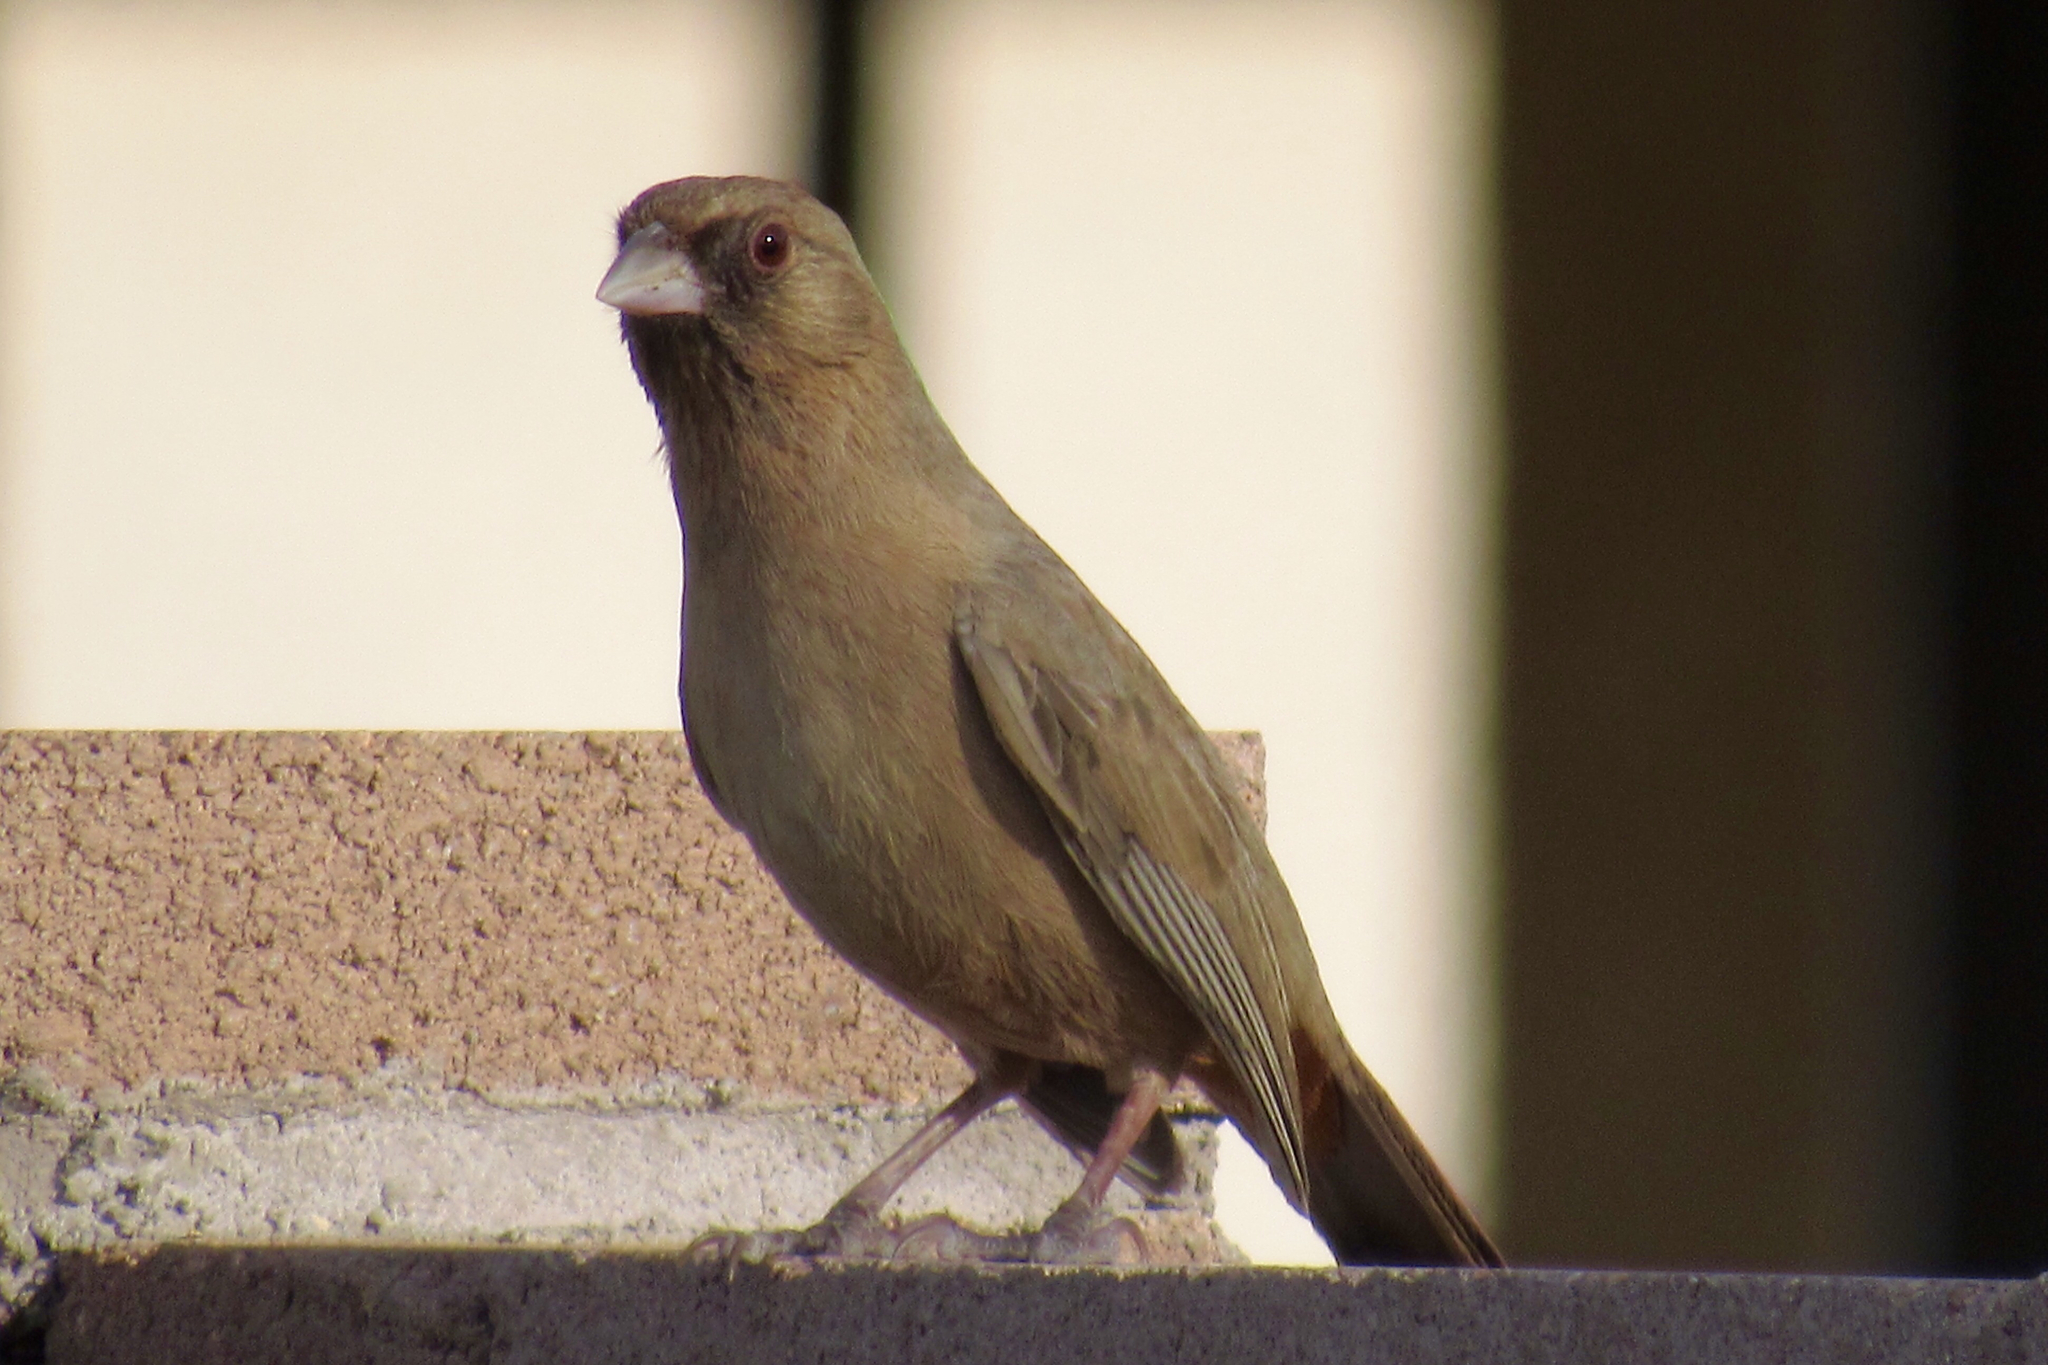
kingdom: Animalia
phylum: Chordata
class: Aves
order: Passeriformes
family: Passerellidae
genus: Melozone
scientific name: Melozone aberti
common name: Abert's towhee
